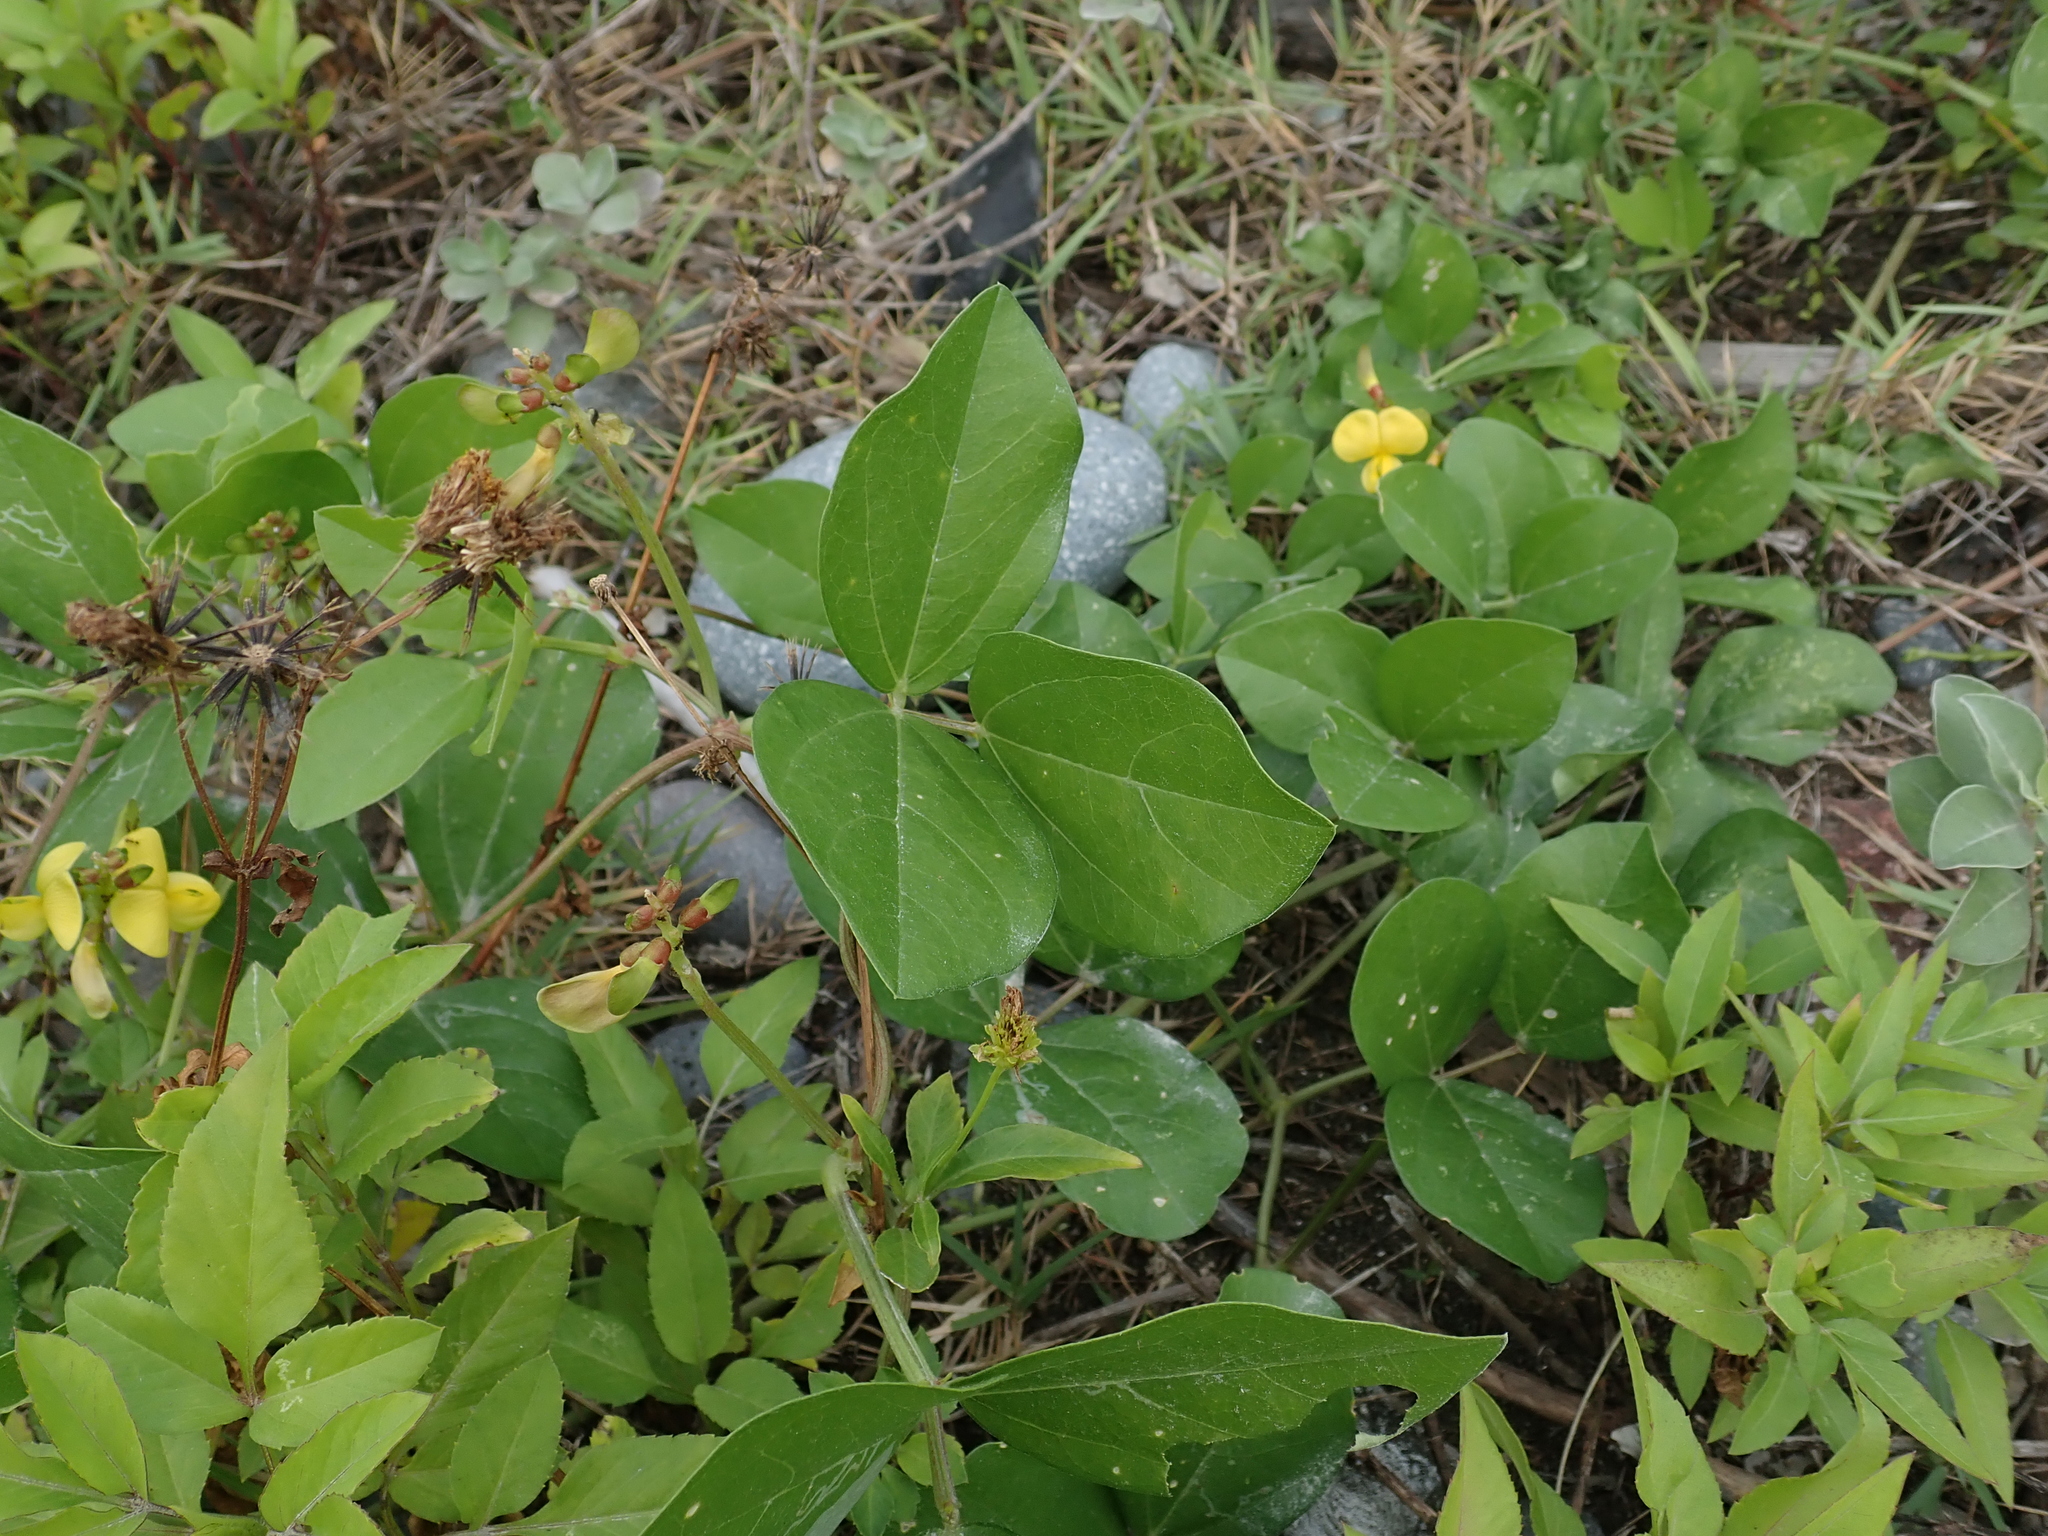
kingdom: Plantae
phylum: Tracheophyta
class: Magnoliopsida
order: Fabales
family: Fabaceae
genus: Vigna
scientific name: Vigna marina
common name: Dune-bean
